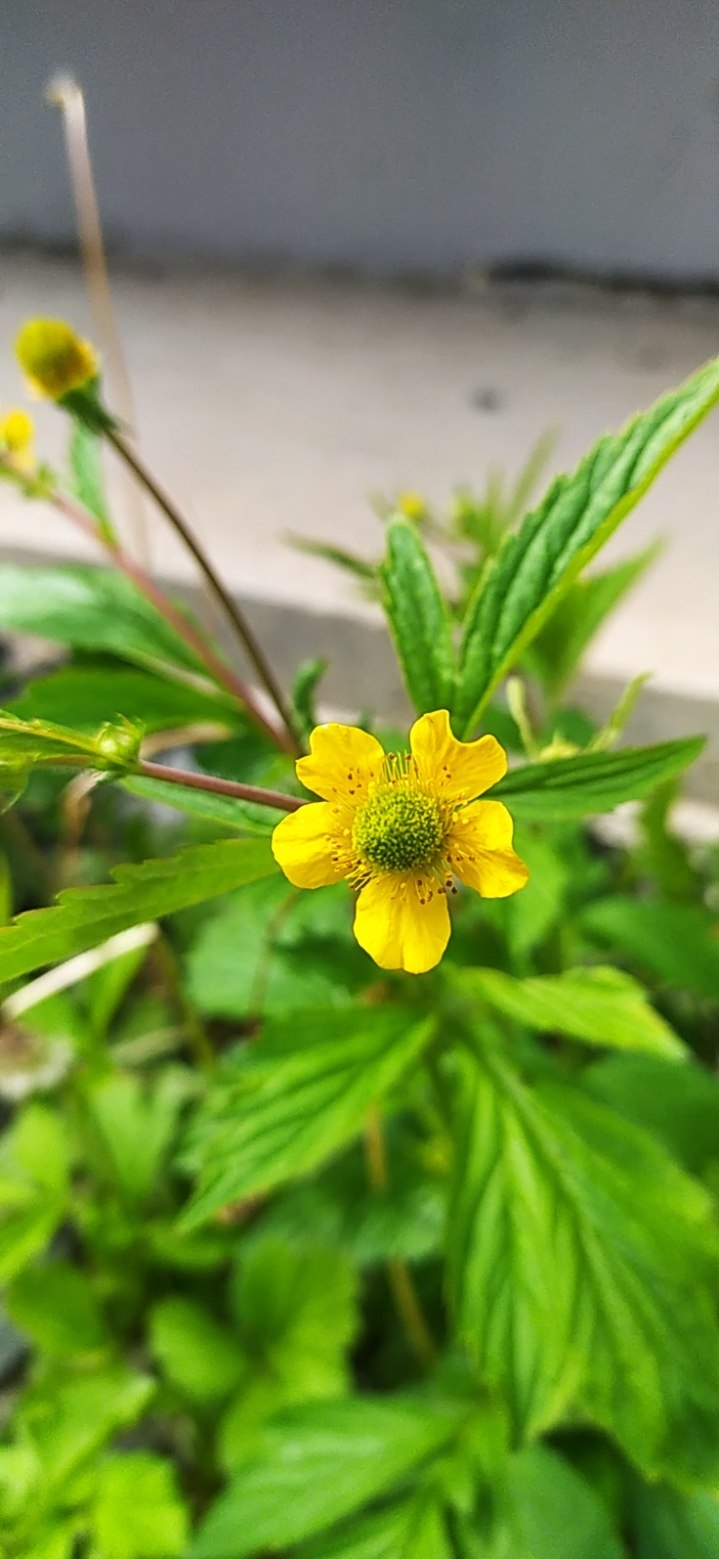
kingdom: Plantae
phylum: Tracheophyta
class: Magnoliopsida
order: Rosales
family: Rosaceae
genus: Geum
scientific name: Geum aleppicum
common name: Yellow avens
